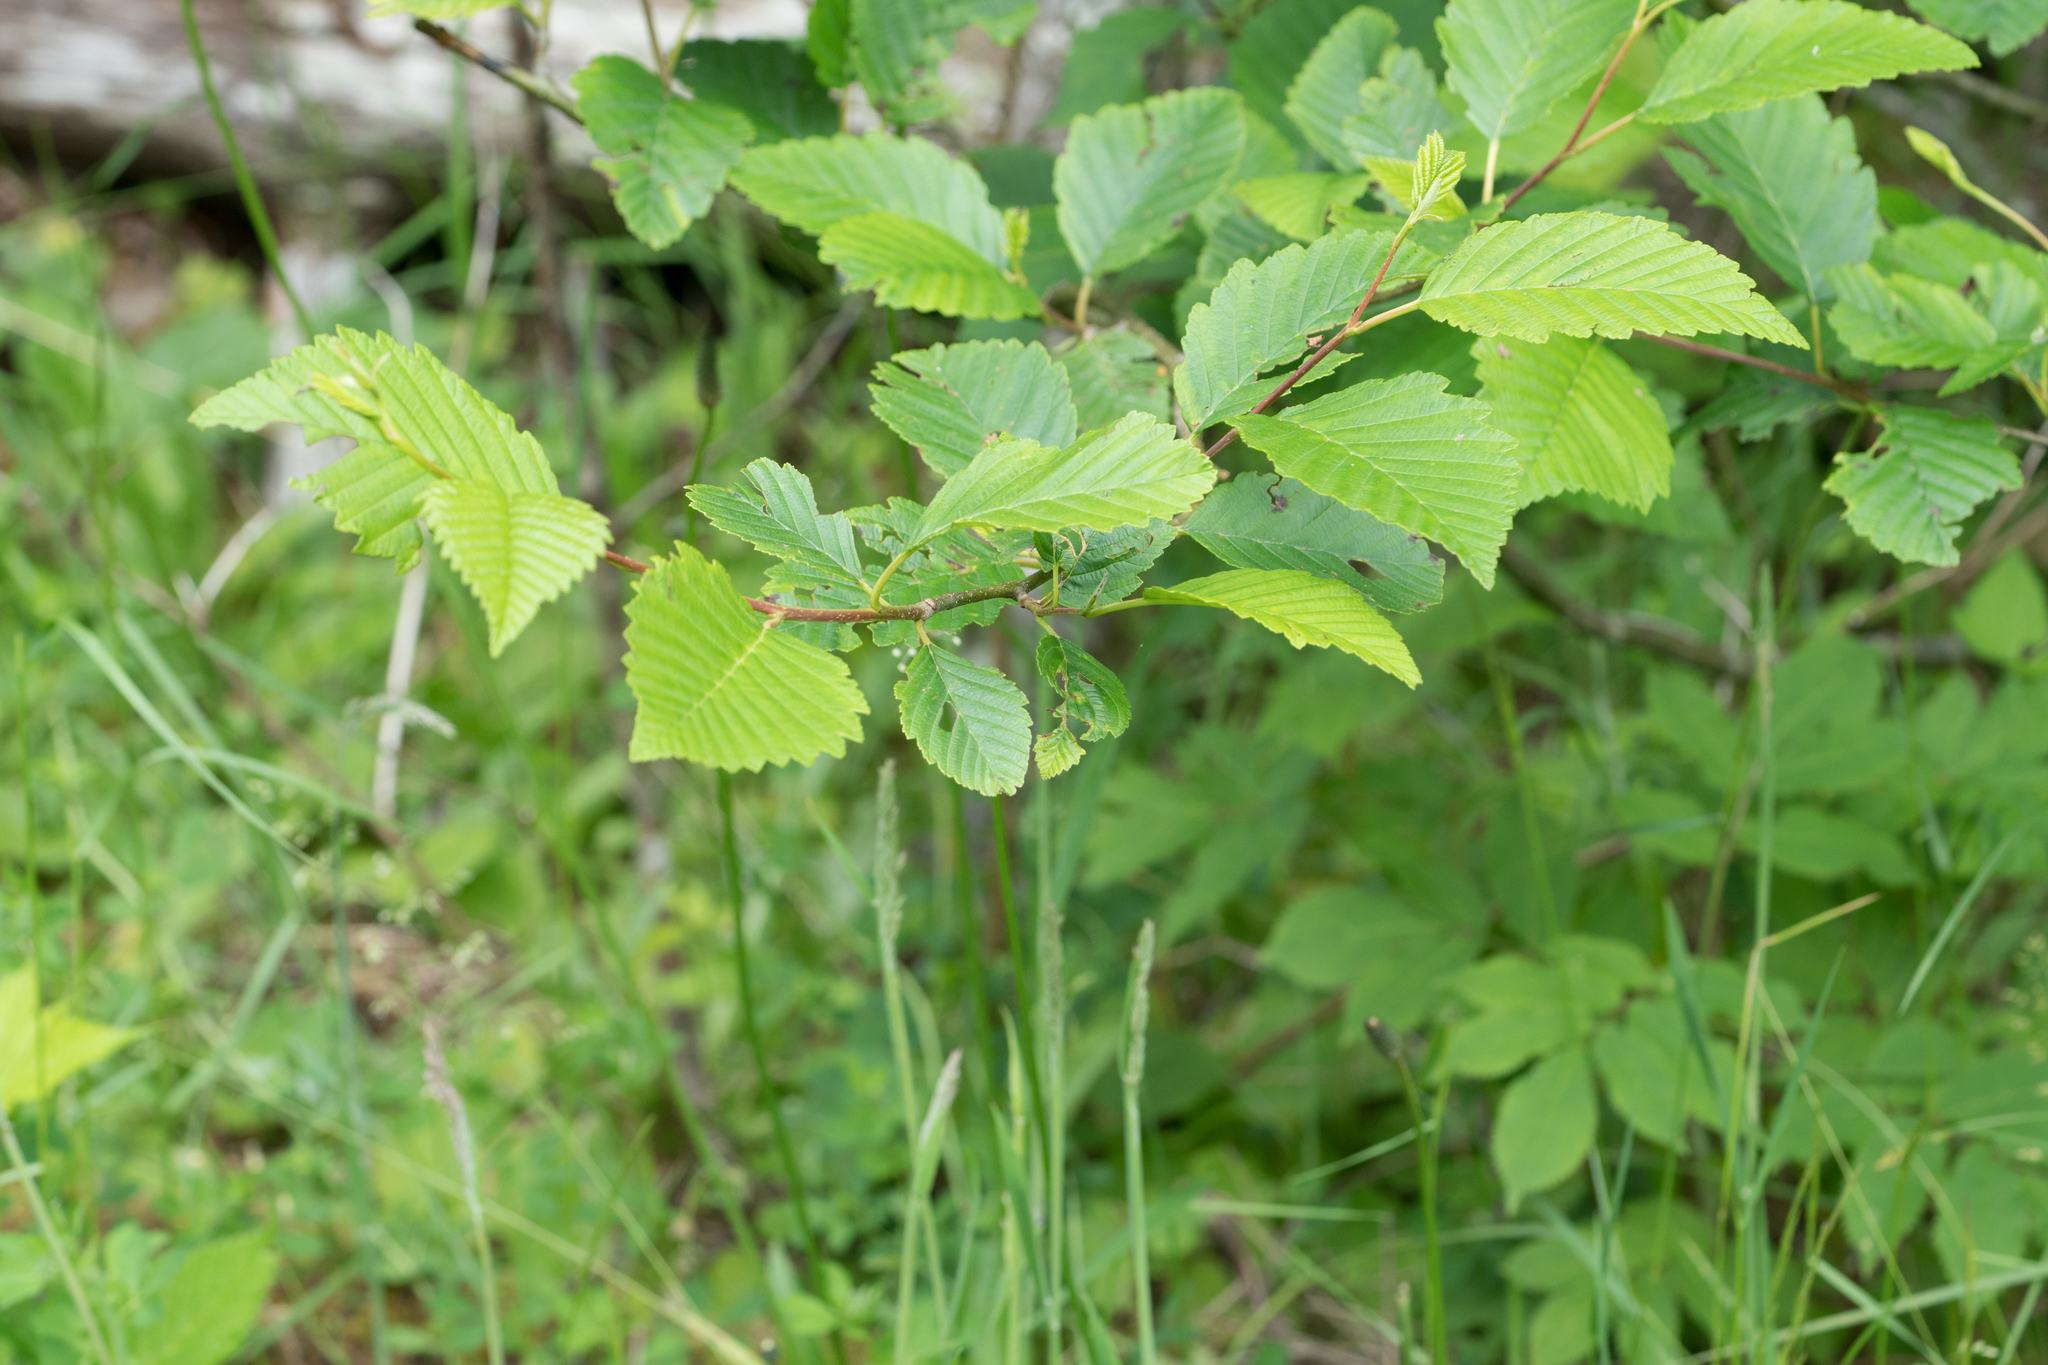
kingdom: Plantae
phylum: Tracheophyta
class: Magnoliopsida
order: Fagales
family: Betulaceae
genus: Alnus
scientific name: Alnus rubra
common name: Red alder
